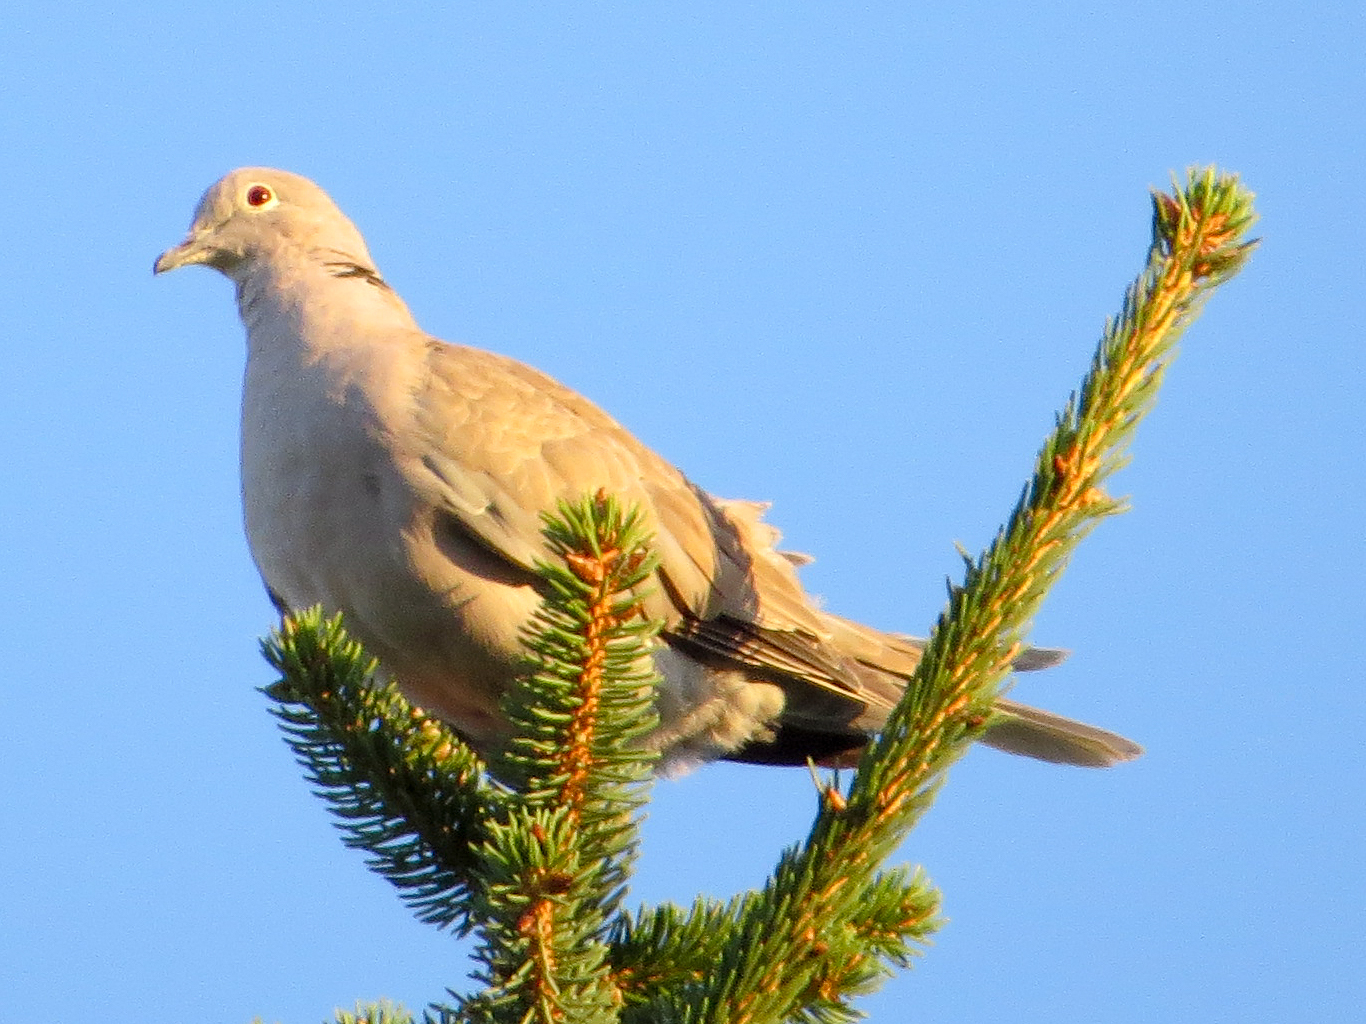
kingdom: Animalia
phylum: Chordata
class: Aves
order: Columbiformes
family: Columbidae
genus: Streptopelia
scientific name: Streptopelia decaocto
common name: Eurasian collared dove
